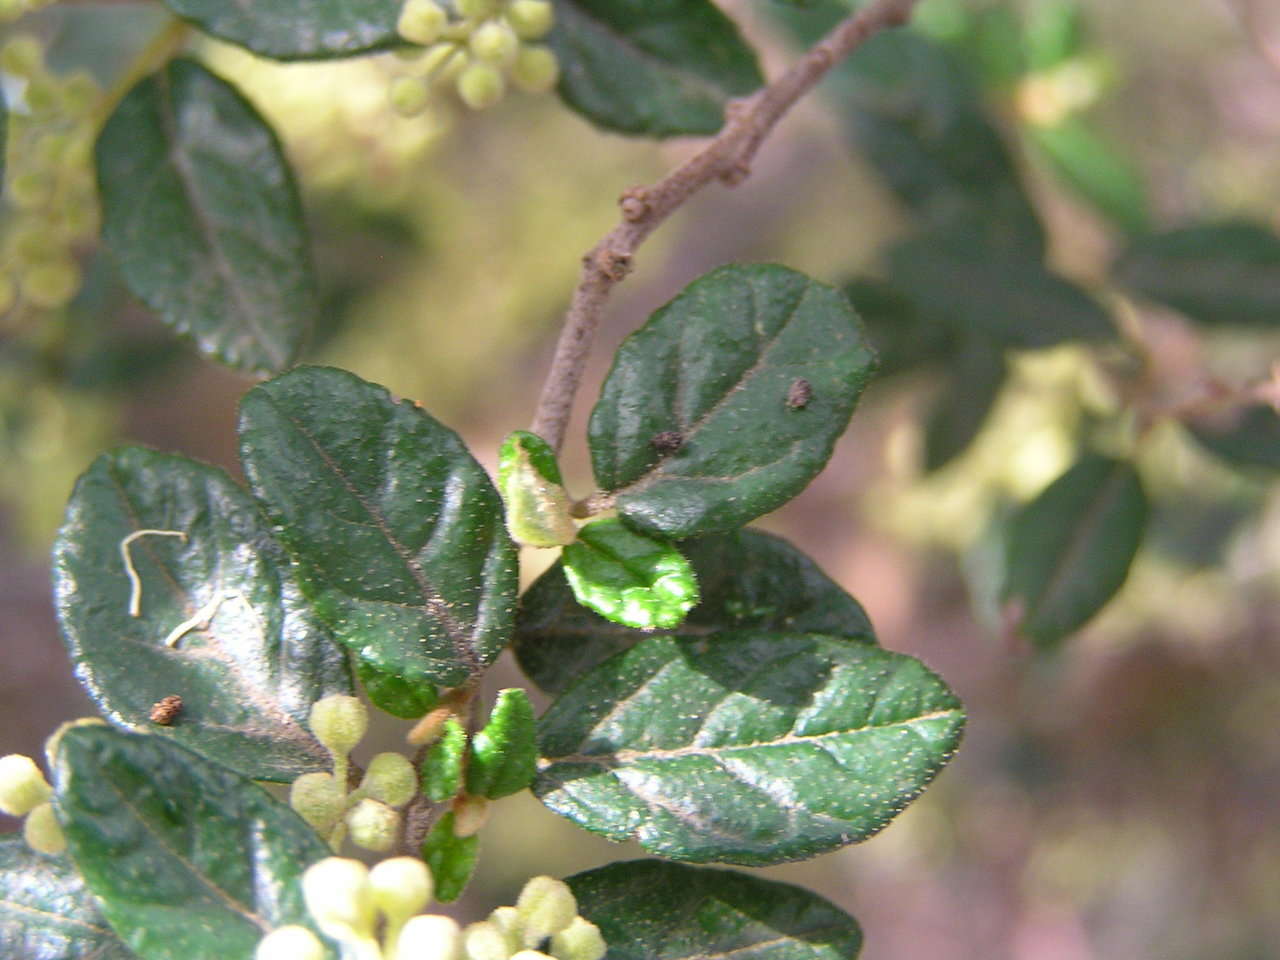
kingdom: Plantae
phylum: Tracheophyta
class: Magnoliopsida
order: Rosales
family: Rhamnaceae
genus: Pomaderris
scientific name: Pomaderris racemosa
